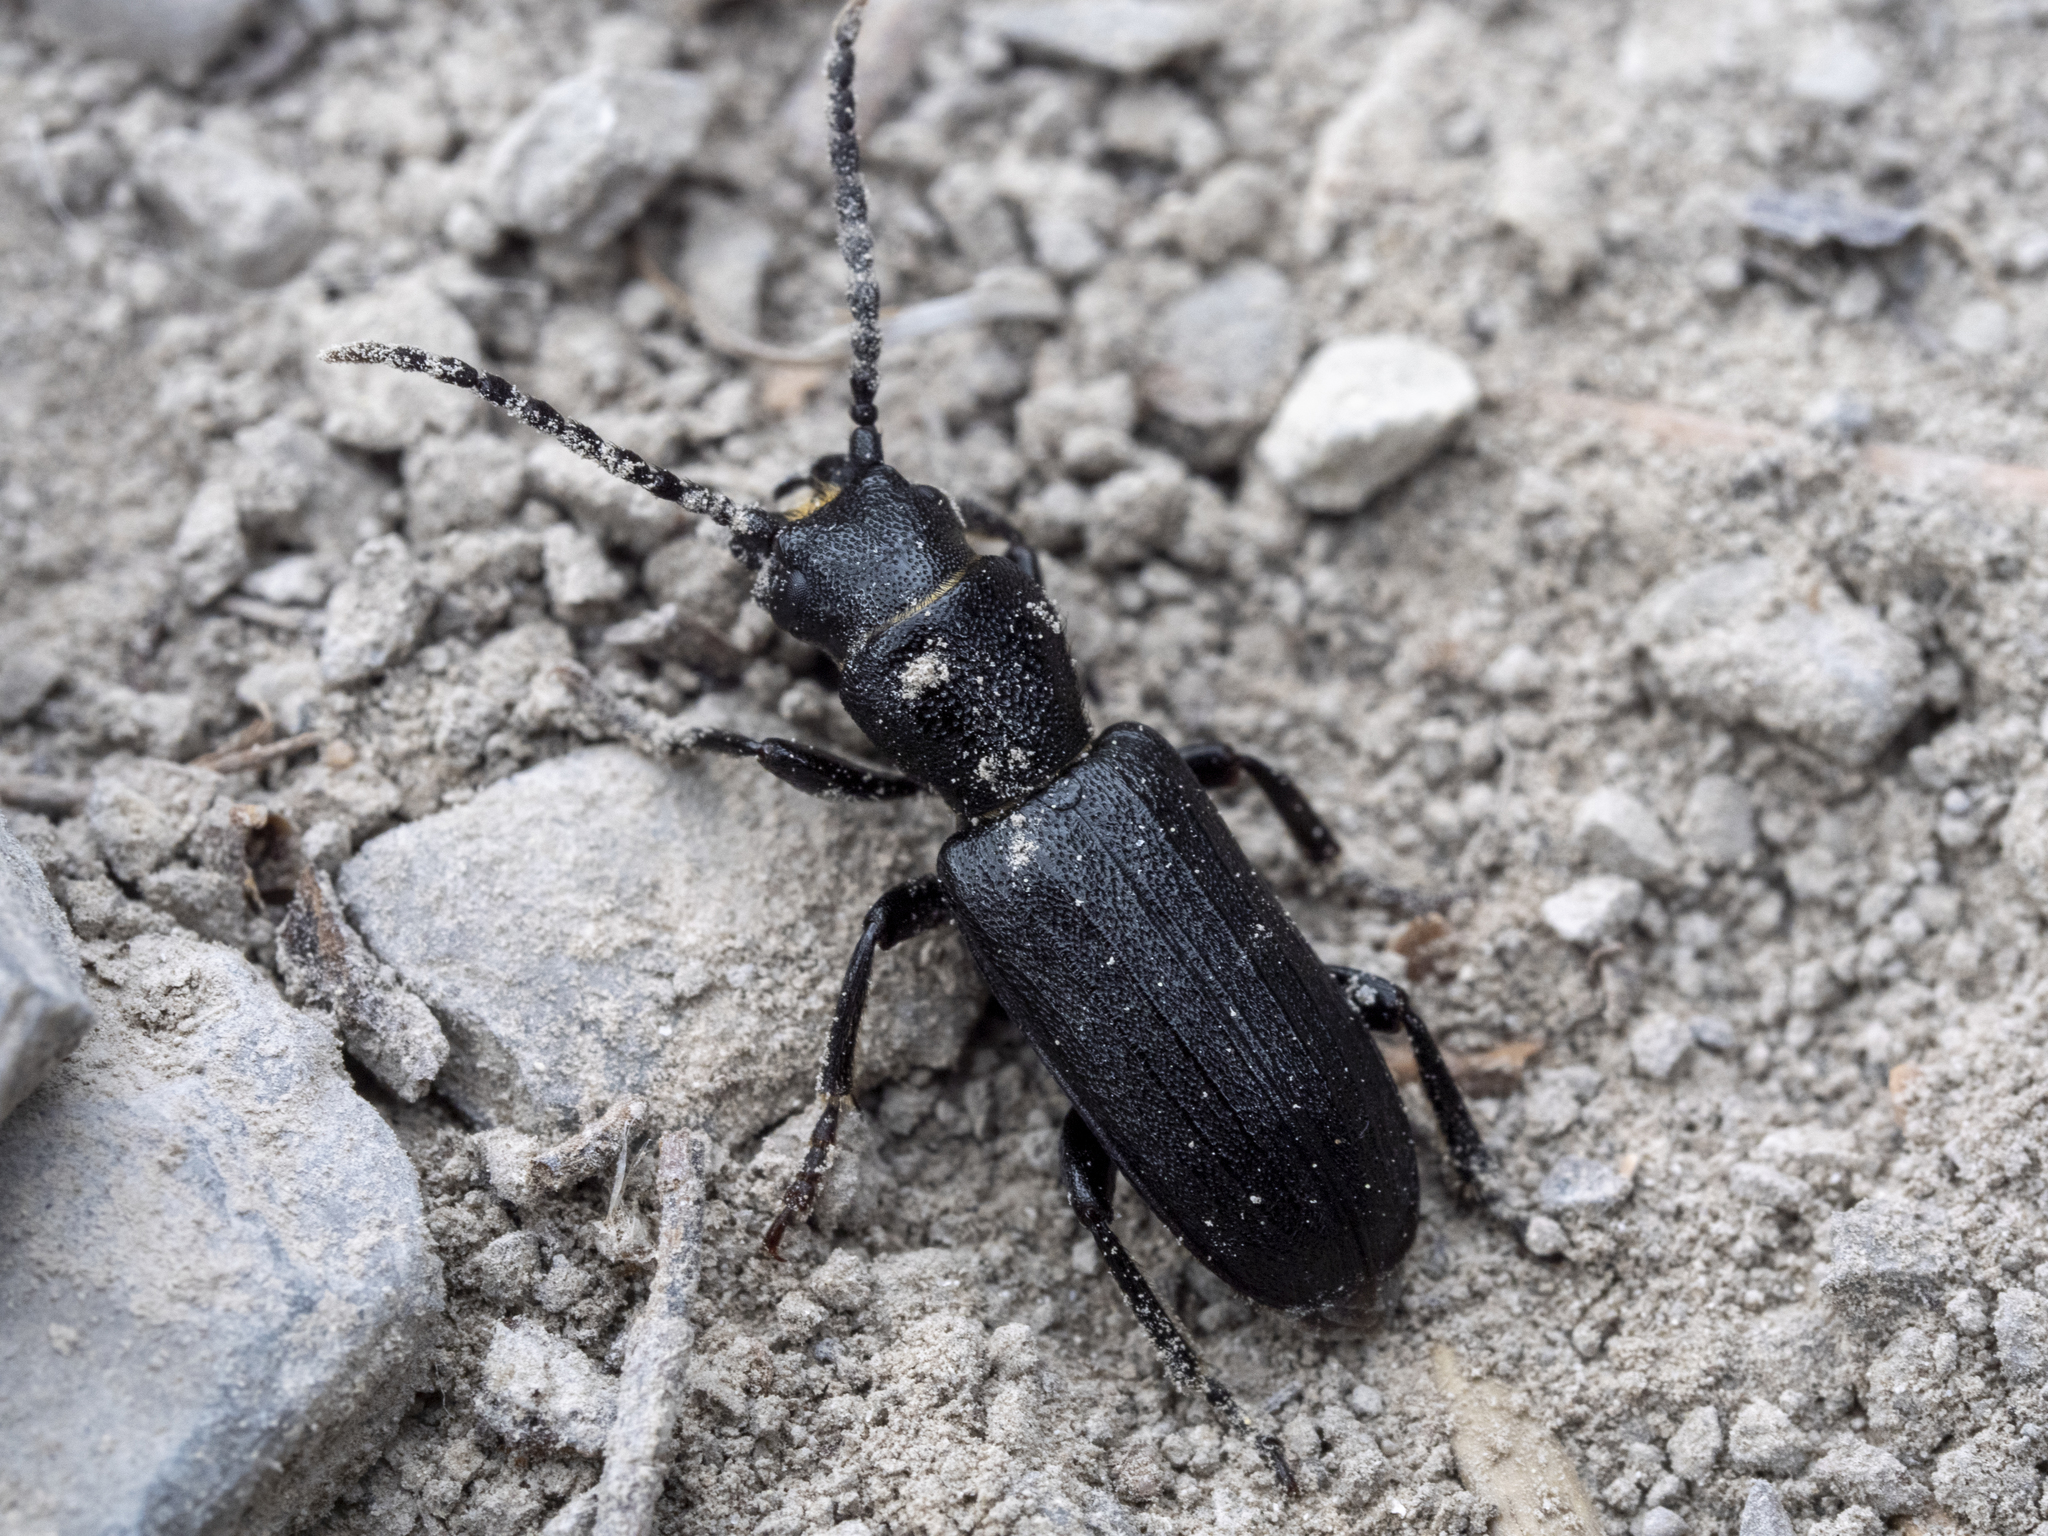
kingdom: Animalia
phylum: Arthropoda
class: Insecta
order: Coleoptera
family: Cerambycidae
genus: Neospondylis
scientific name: Neospondylis upiformis
